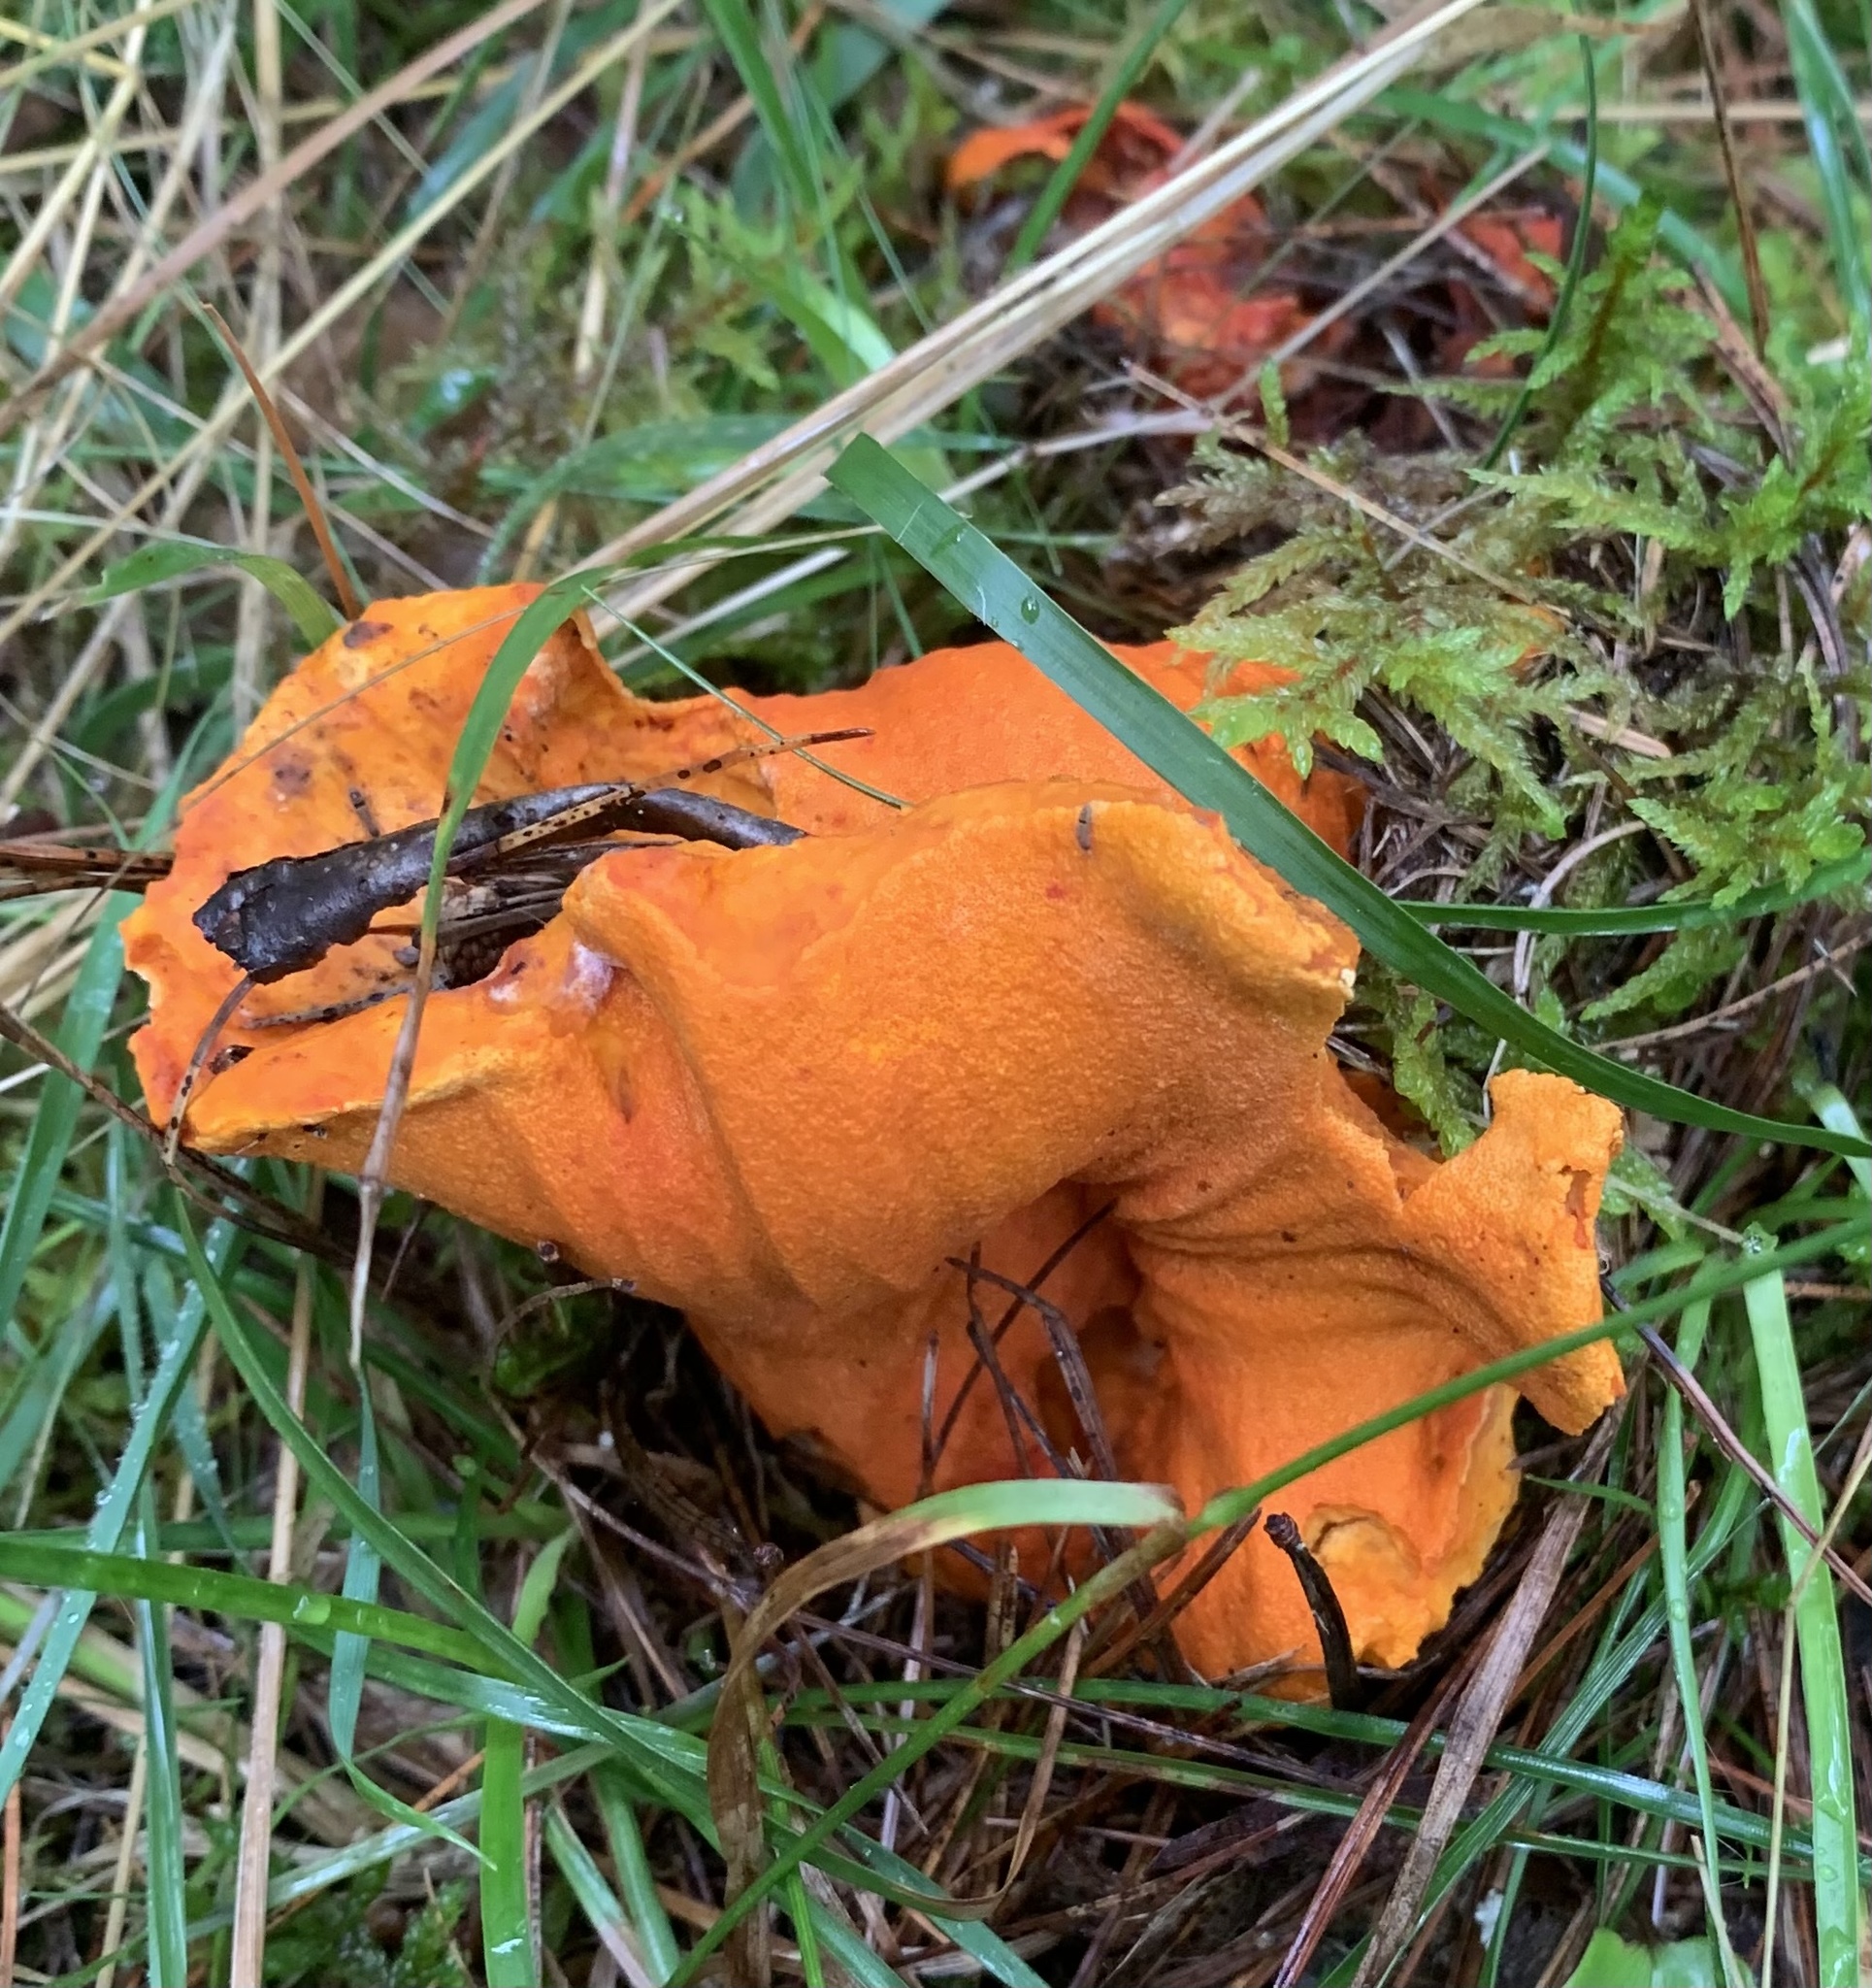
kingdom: Fungi
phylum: Ascomycota
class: Sordariomycetes
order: Hypocreales
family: Hypocreaceae
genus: Hypomyces
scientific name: Hypomyces lactifluorum
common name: Lobster mushroom
